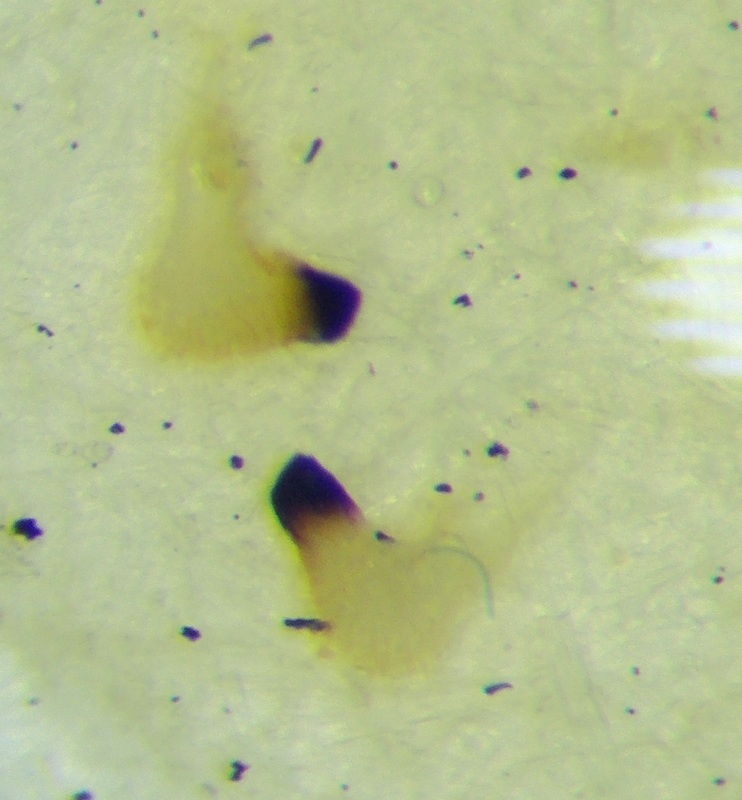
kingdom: Animalia
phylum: Arthropoda
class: Insecta
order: Hemiptera
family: Rhopalidae
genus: Maccevethus
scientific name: Maccevethus corsicus
